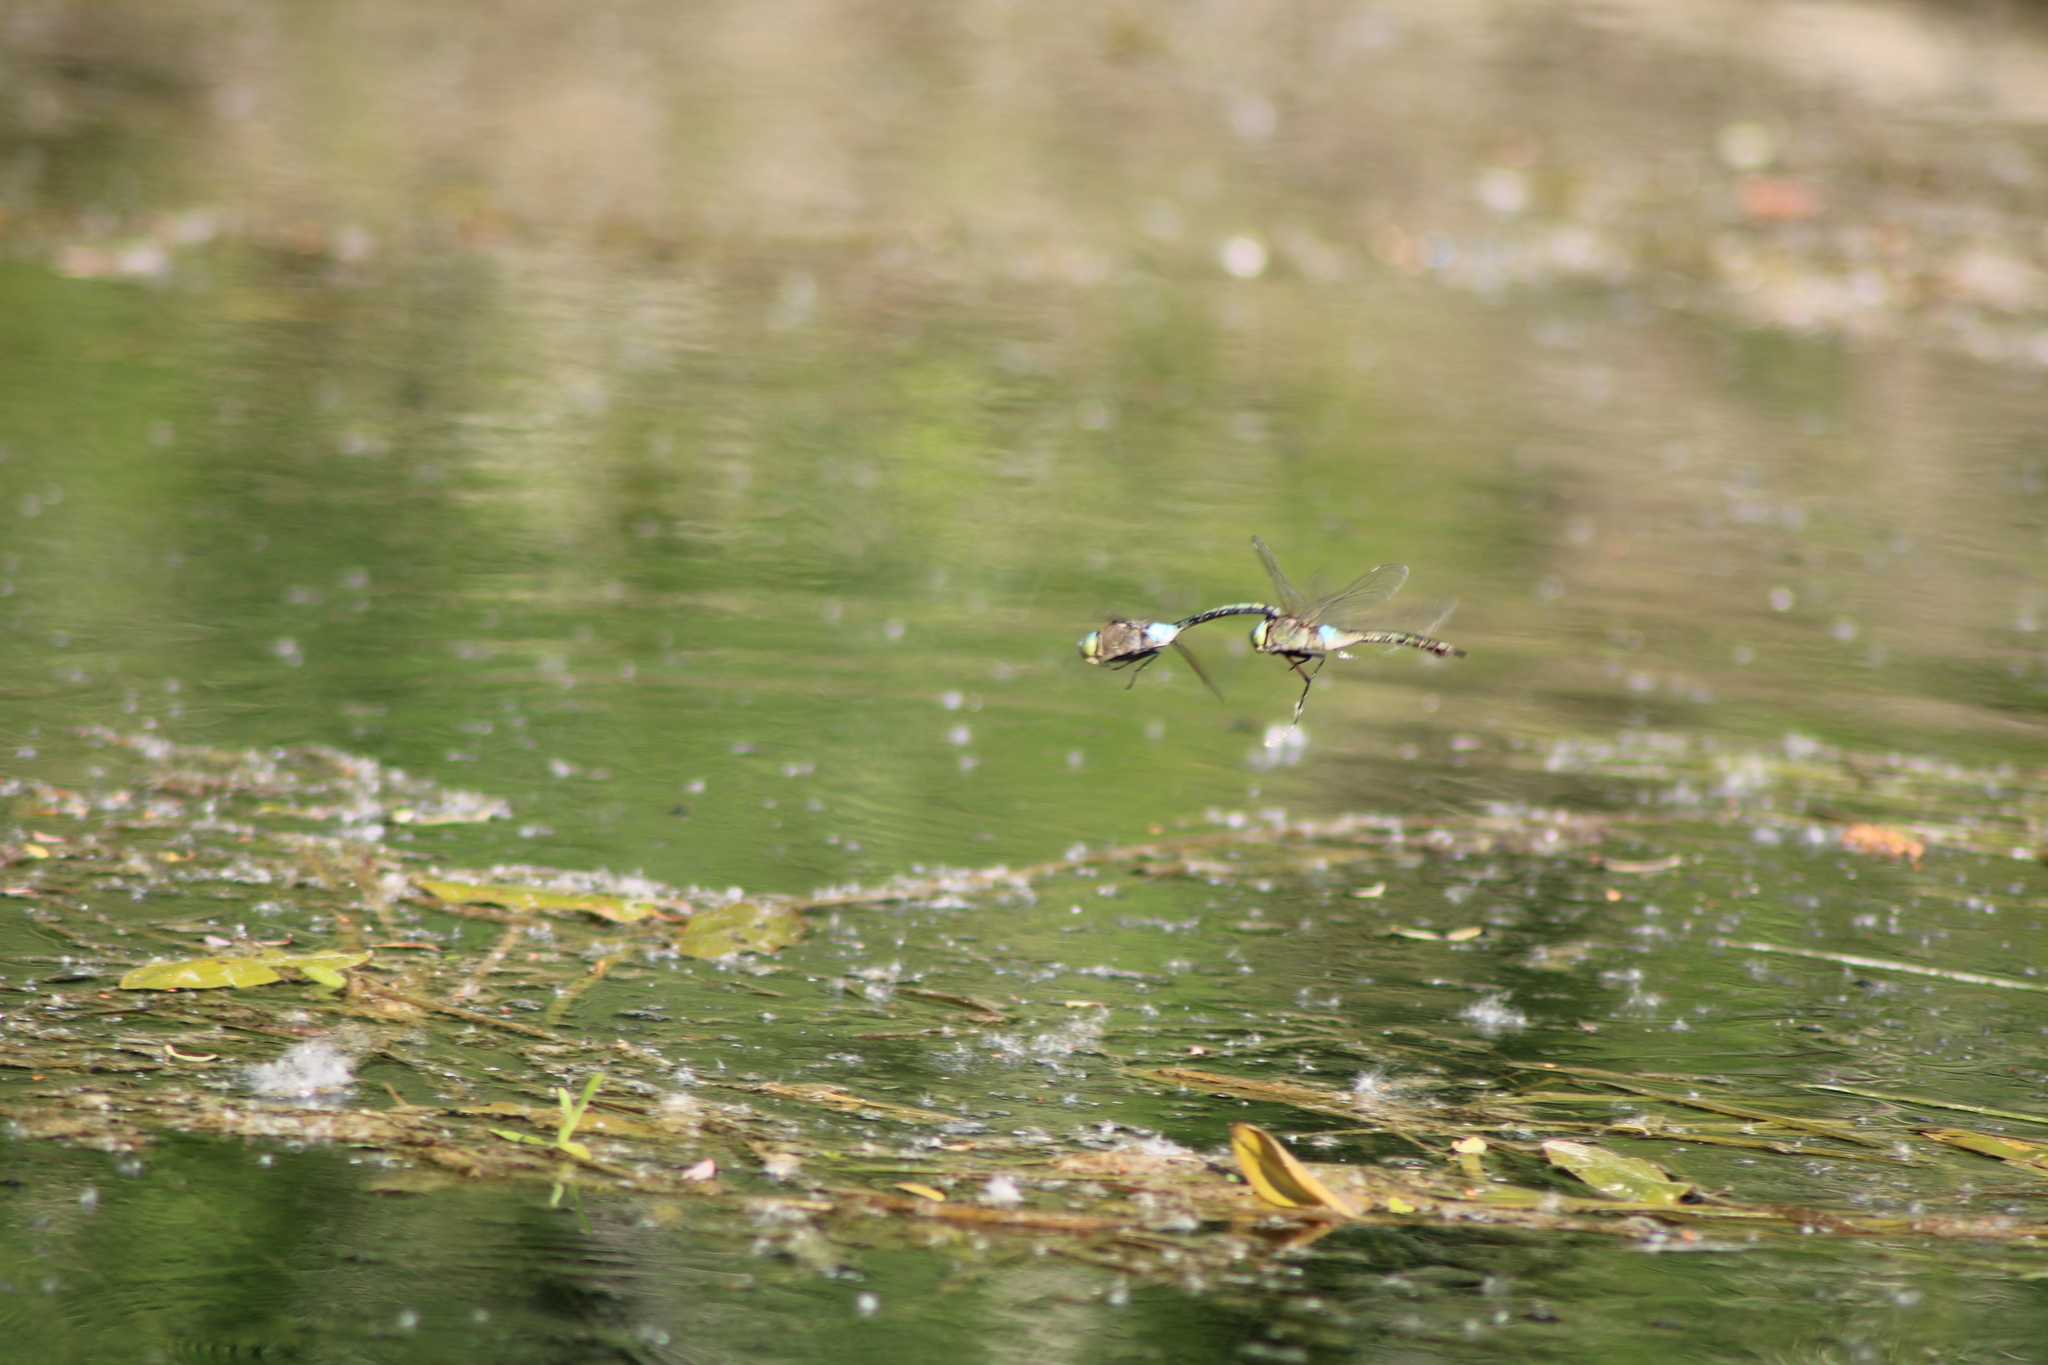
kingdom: Animalia
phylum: Arthropoda
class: Insecta
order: Odonata
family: Aeshnidae
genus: Anax
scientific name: Anax parthenope
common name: Lesser emperor
